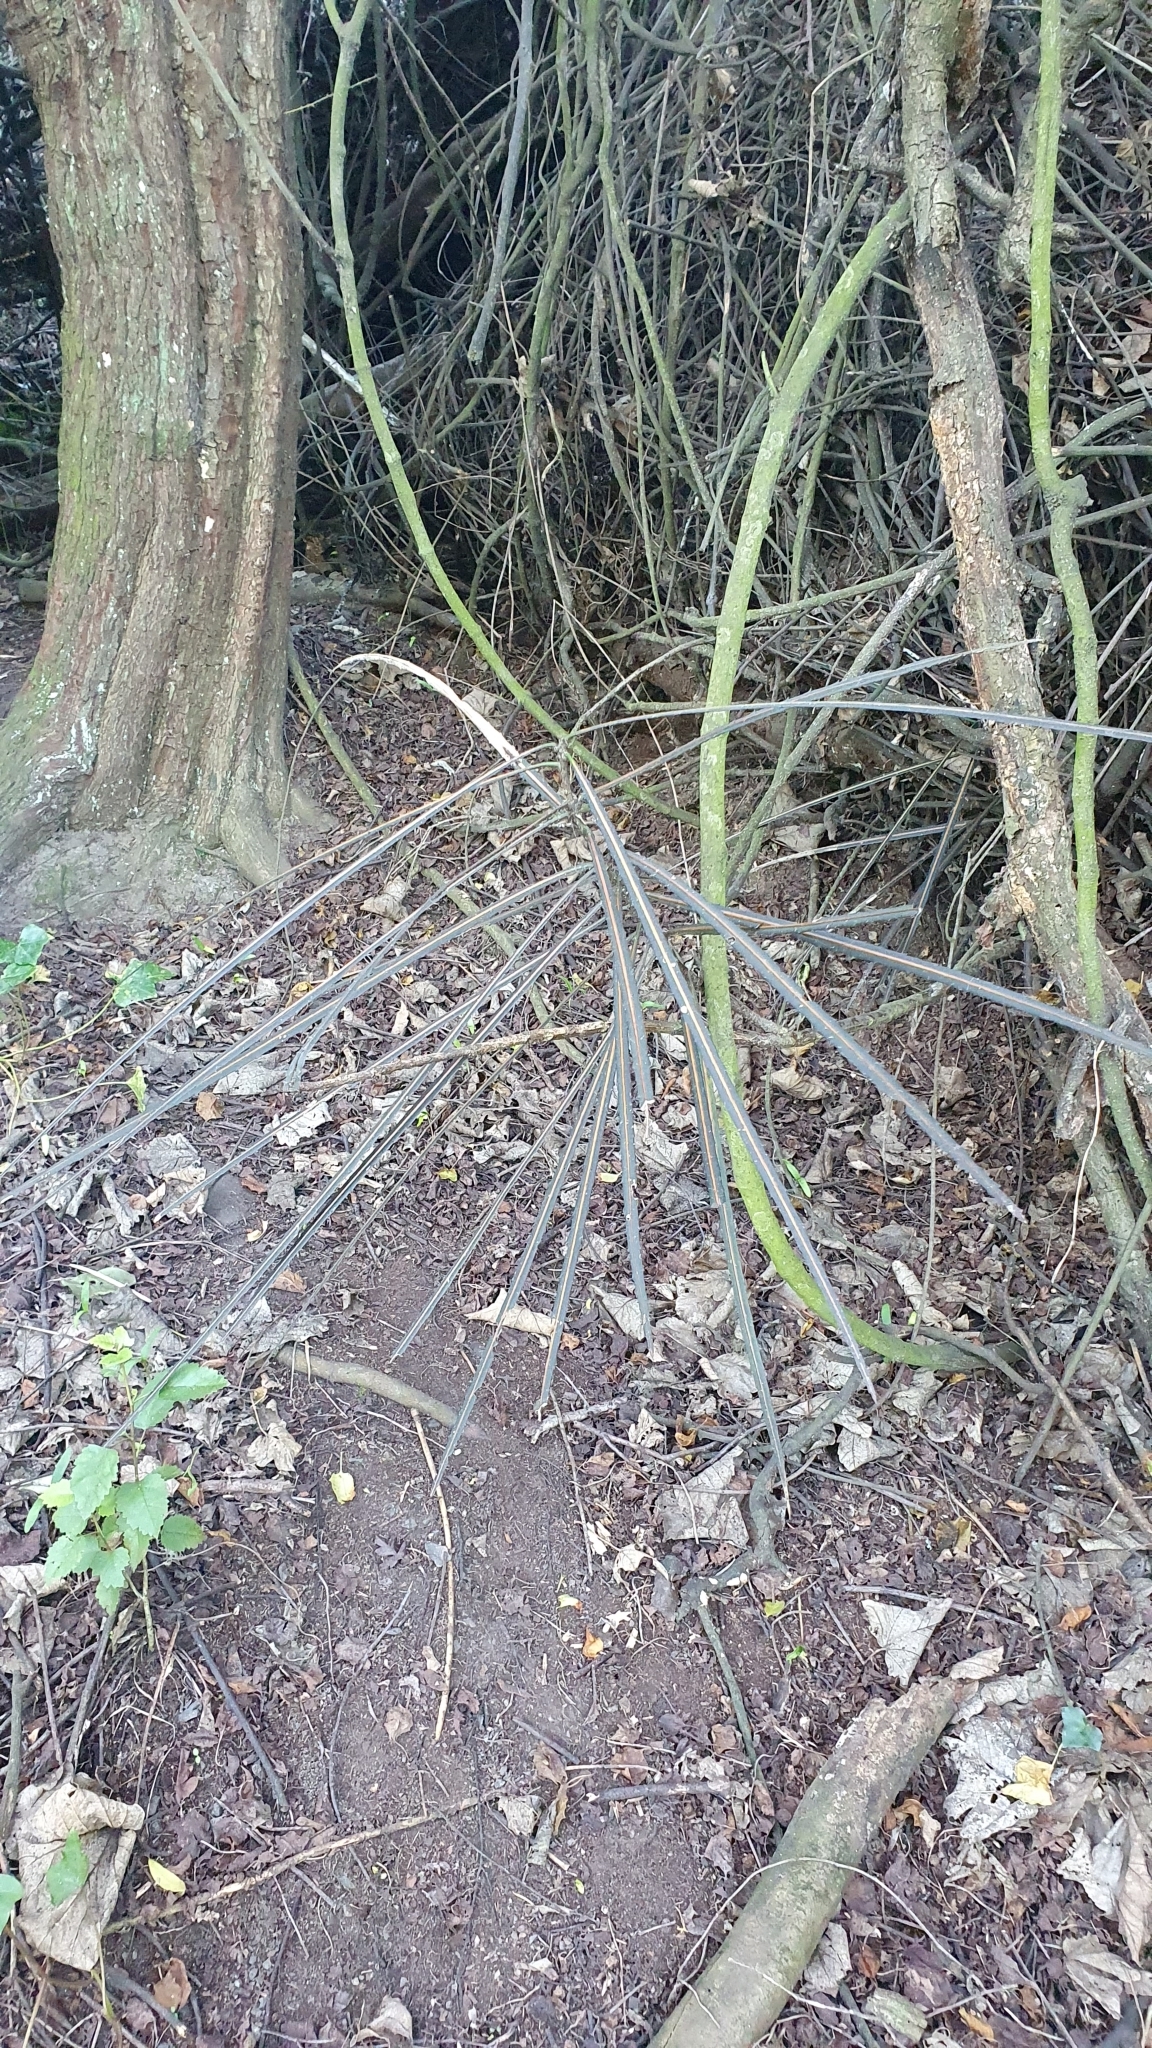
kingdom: Plantae
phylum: Tracheophyta
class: Magnoliopsida
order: Apiales
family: Araliaceae
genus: Pseudopanax
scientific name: Pseudopanax crassifolius
